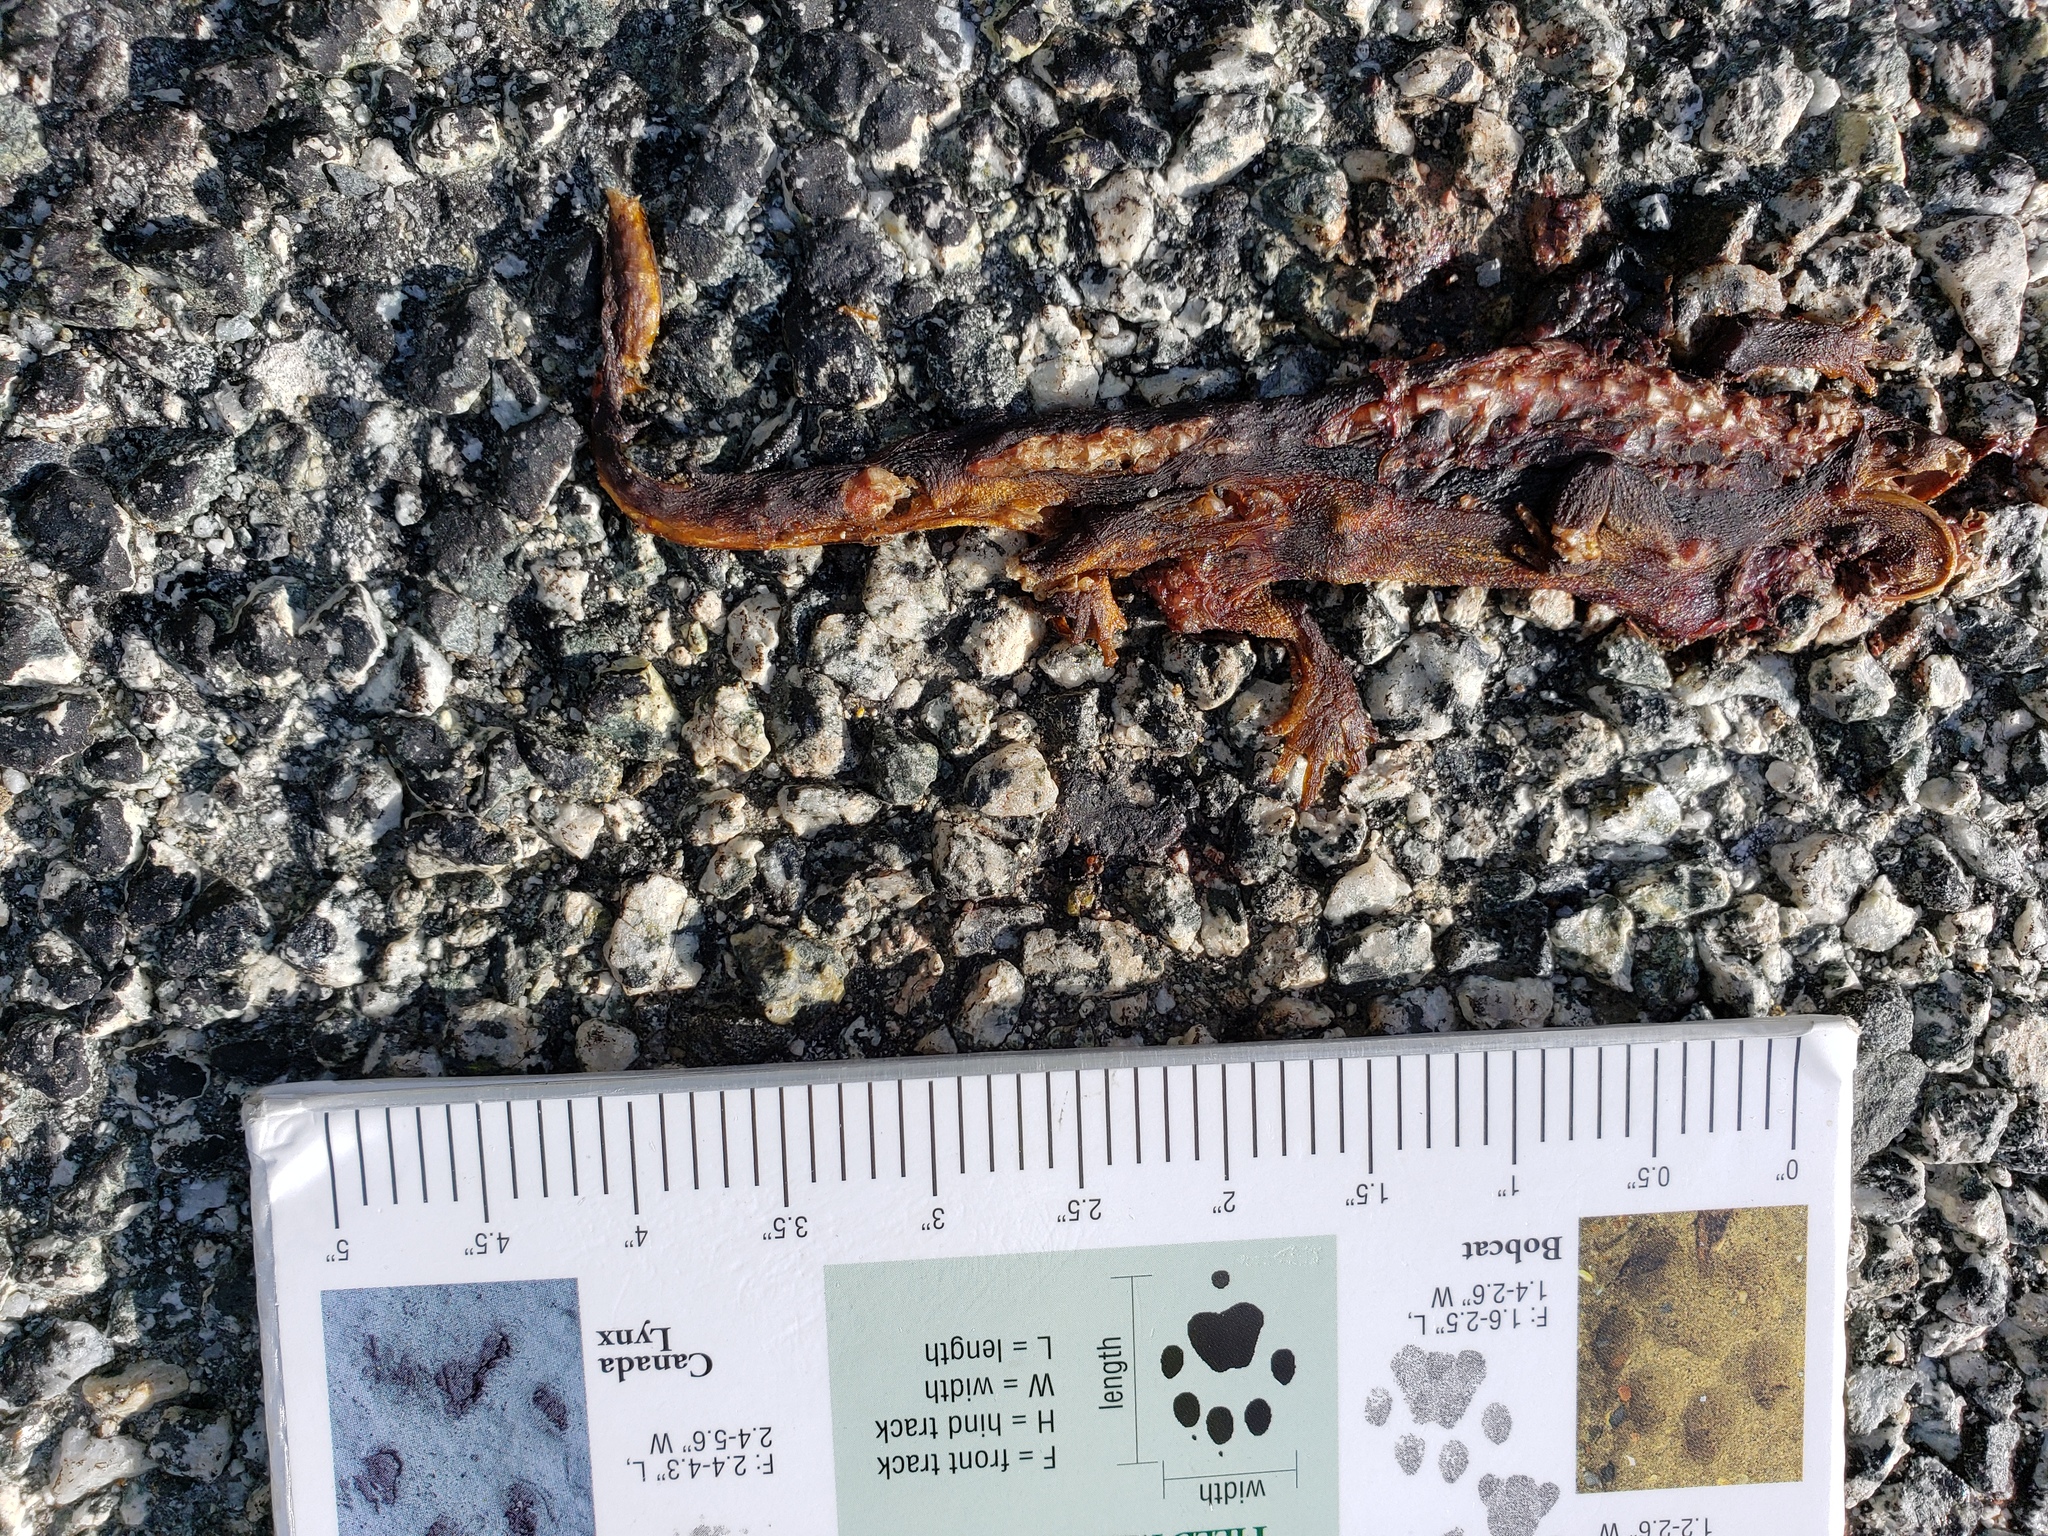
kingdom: Animalia
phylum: Chordata
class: Amphibia
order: Caudata
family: Salamandridae
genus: Taricha
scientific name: Taricha
